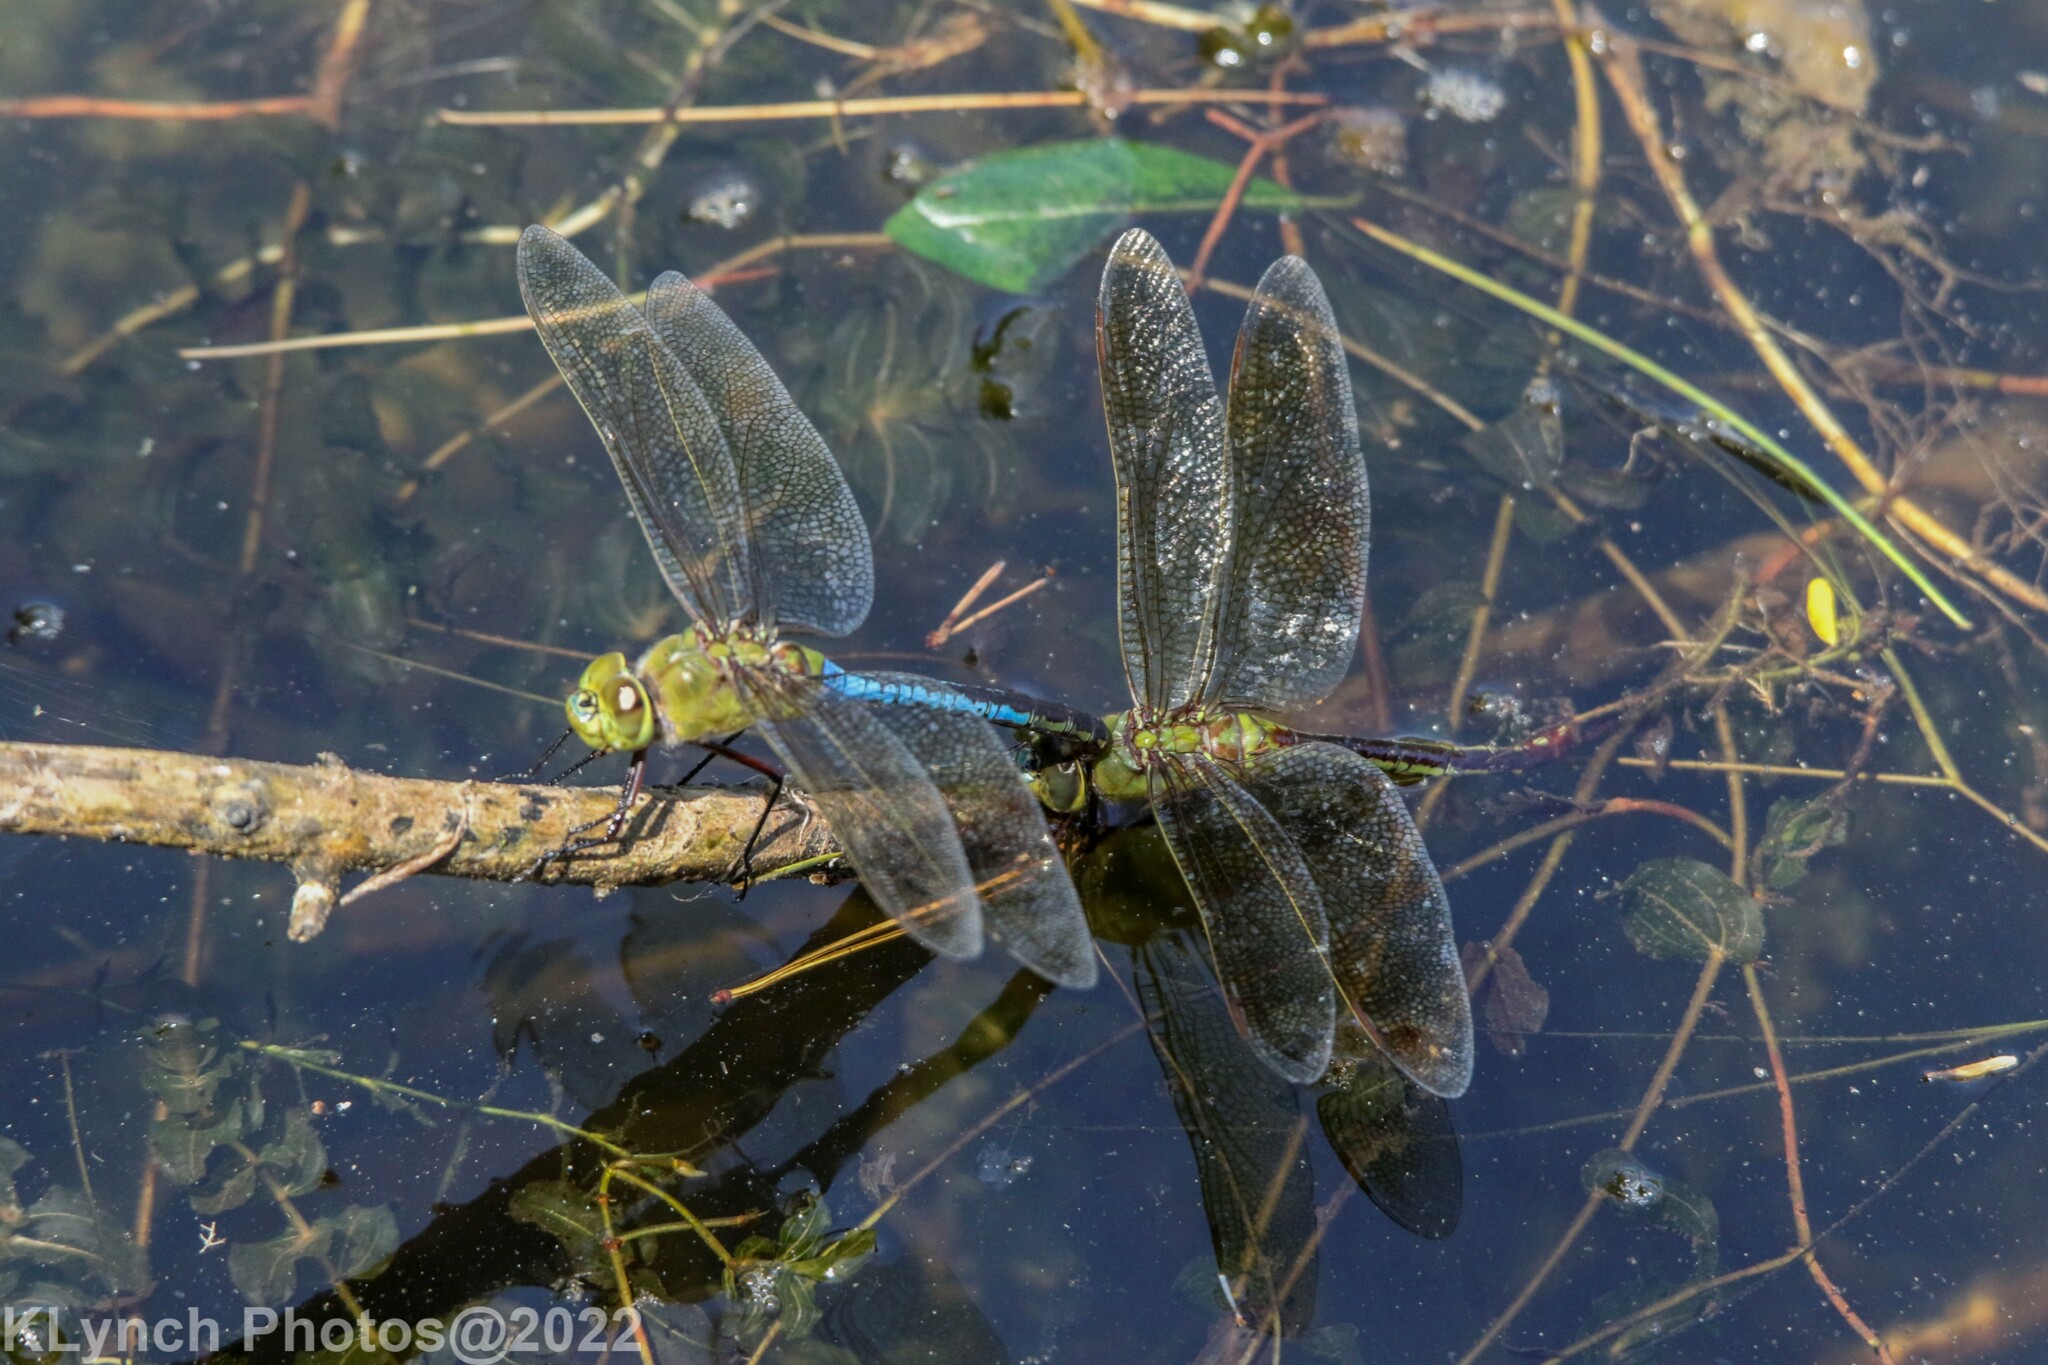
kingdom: Animalia
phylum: Arthropoda
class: Insecta
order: Odonata
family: Aeshnidae
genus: Anax
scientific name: Anax junius
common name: Common green darner
